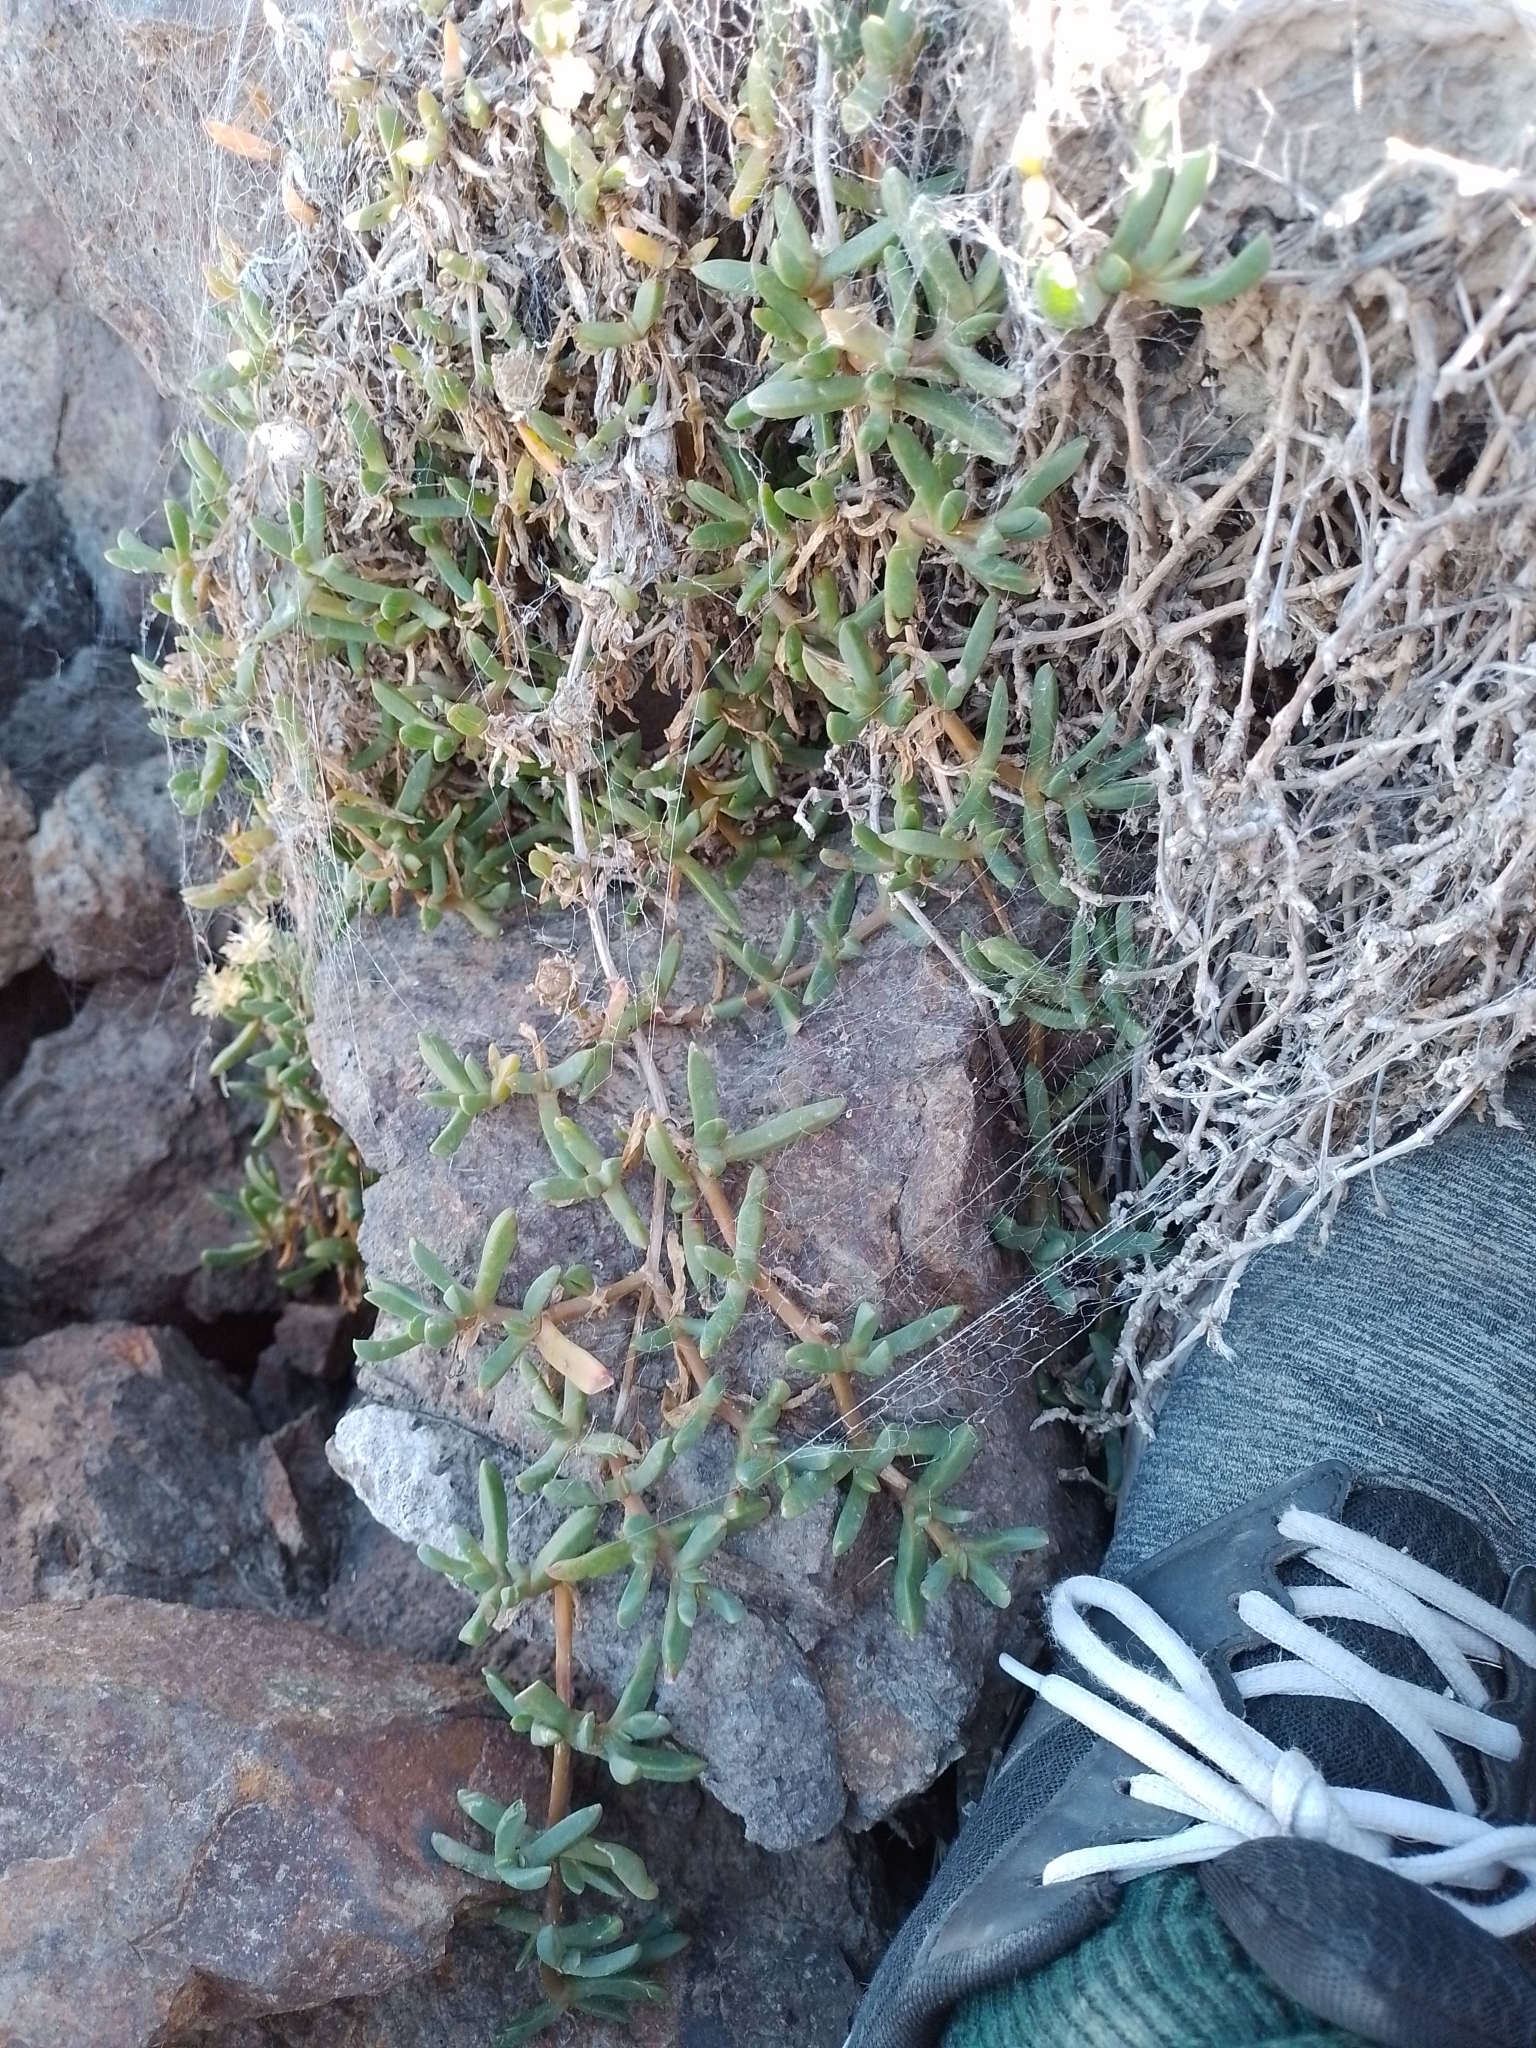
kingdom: Plantae
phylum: Tracheophyta
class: Magnoliopsida
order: Caryophyllales
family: Aizoaceae
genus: Disphyma
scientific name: Disphyma australe
